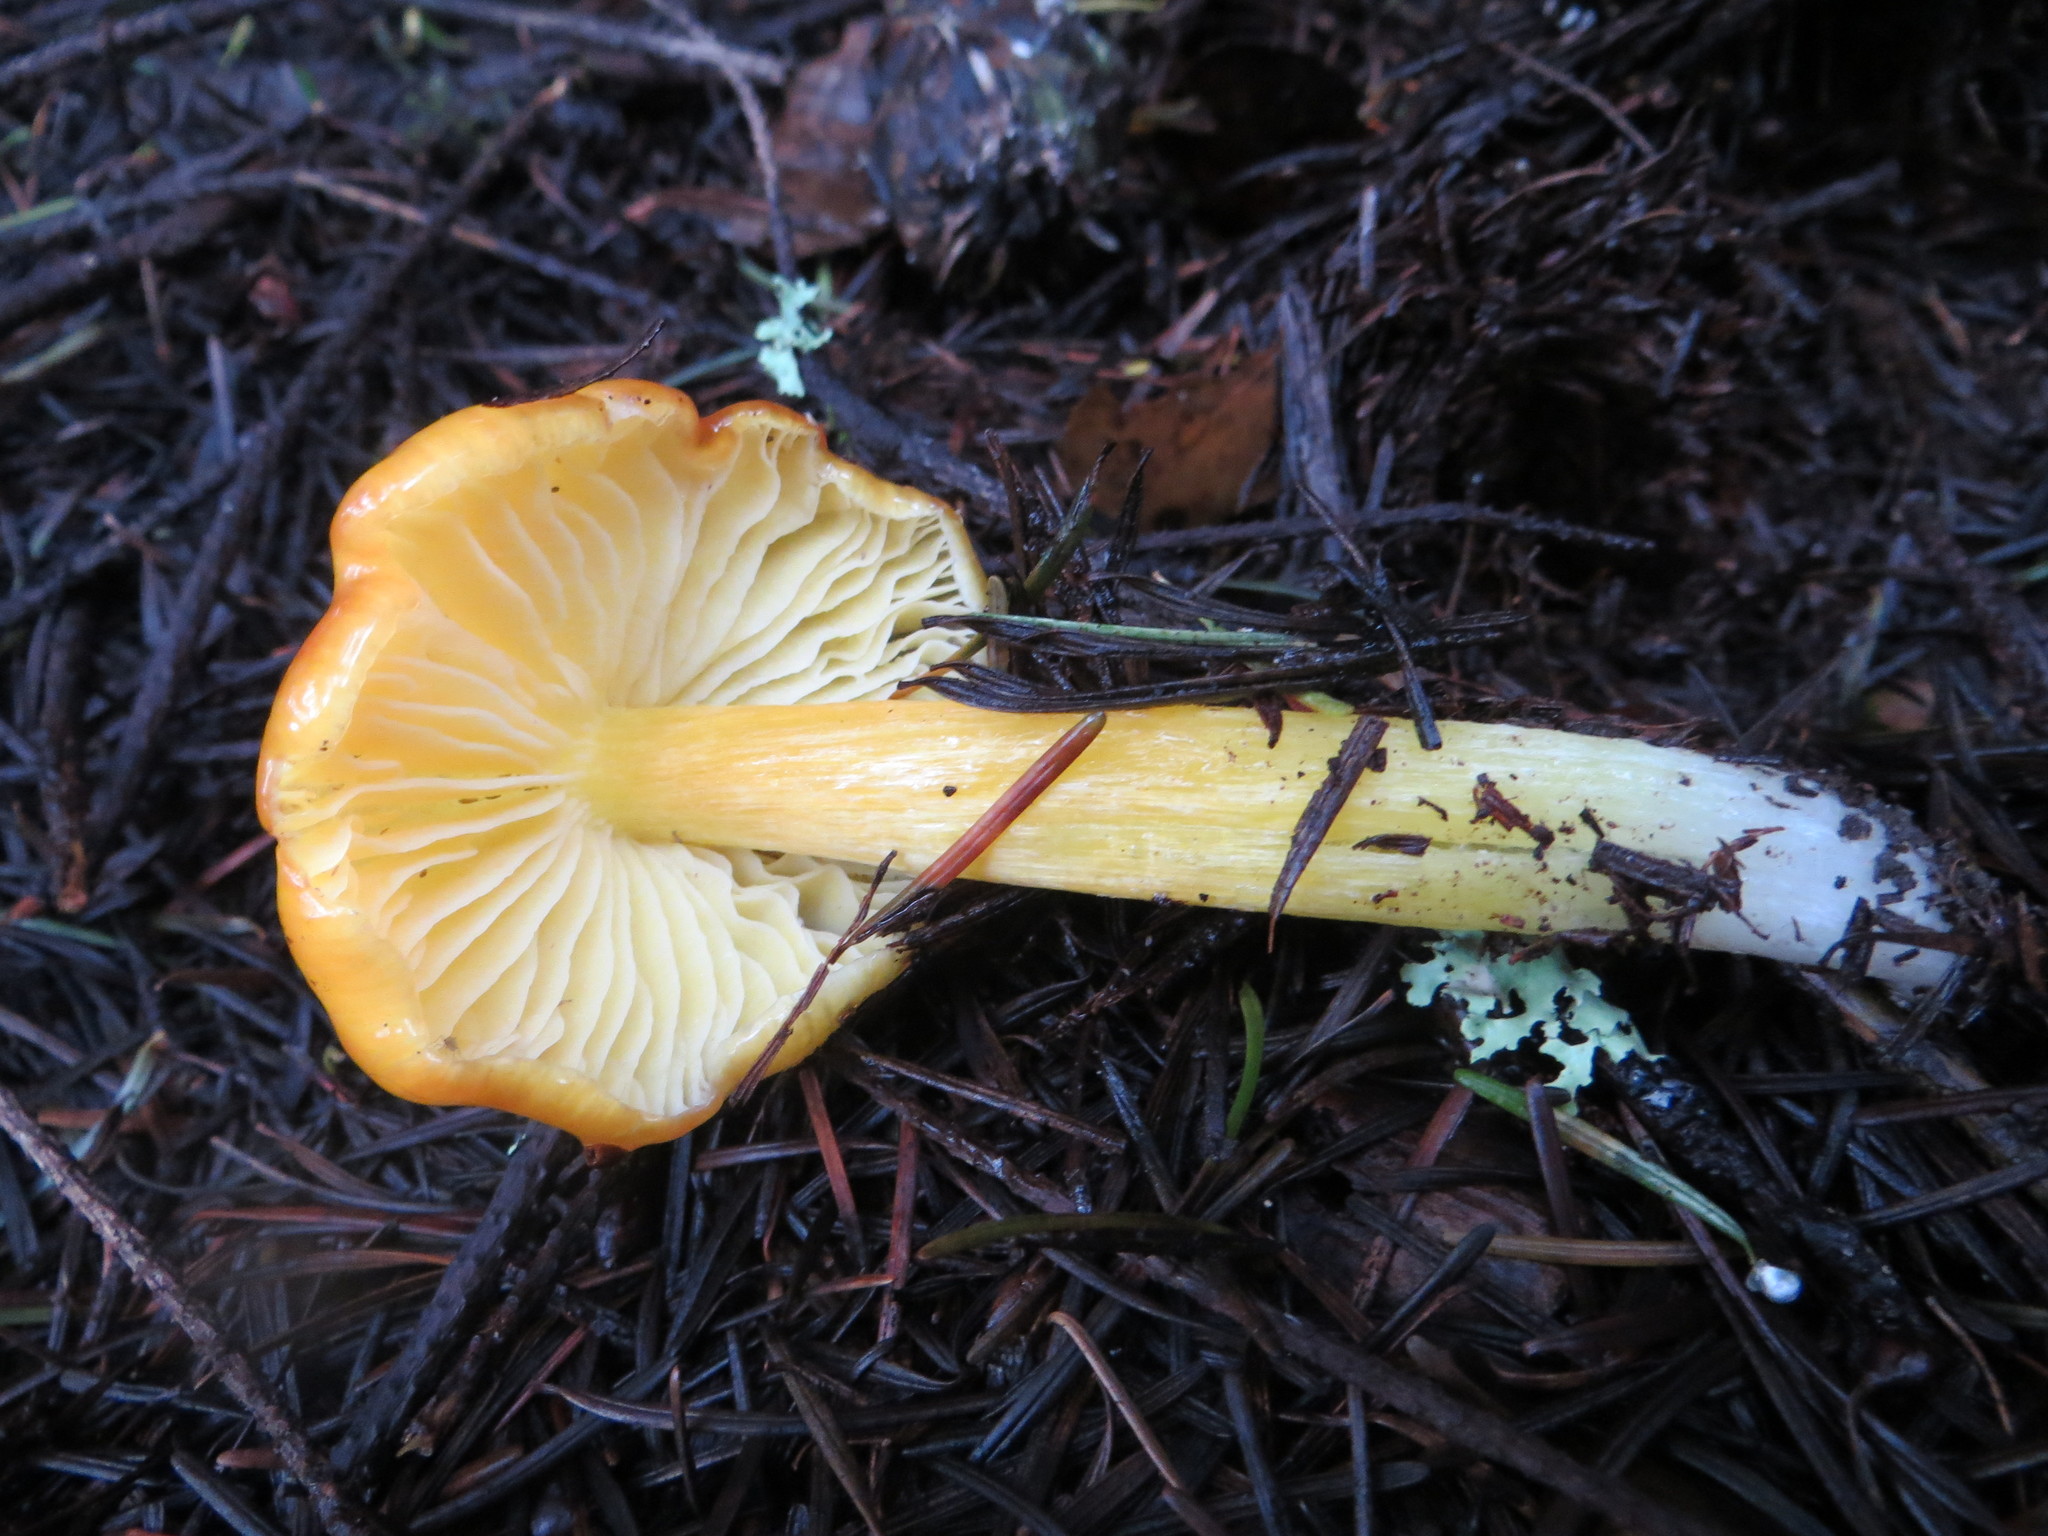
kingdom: Fungi
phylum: Basidiomycota
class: Agaricomycetes
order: Agaricales
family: Hygrophoraceae
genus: Hygrocybe
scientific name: Hygrocybe flavescens
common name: Golden waxy cap
